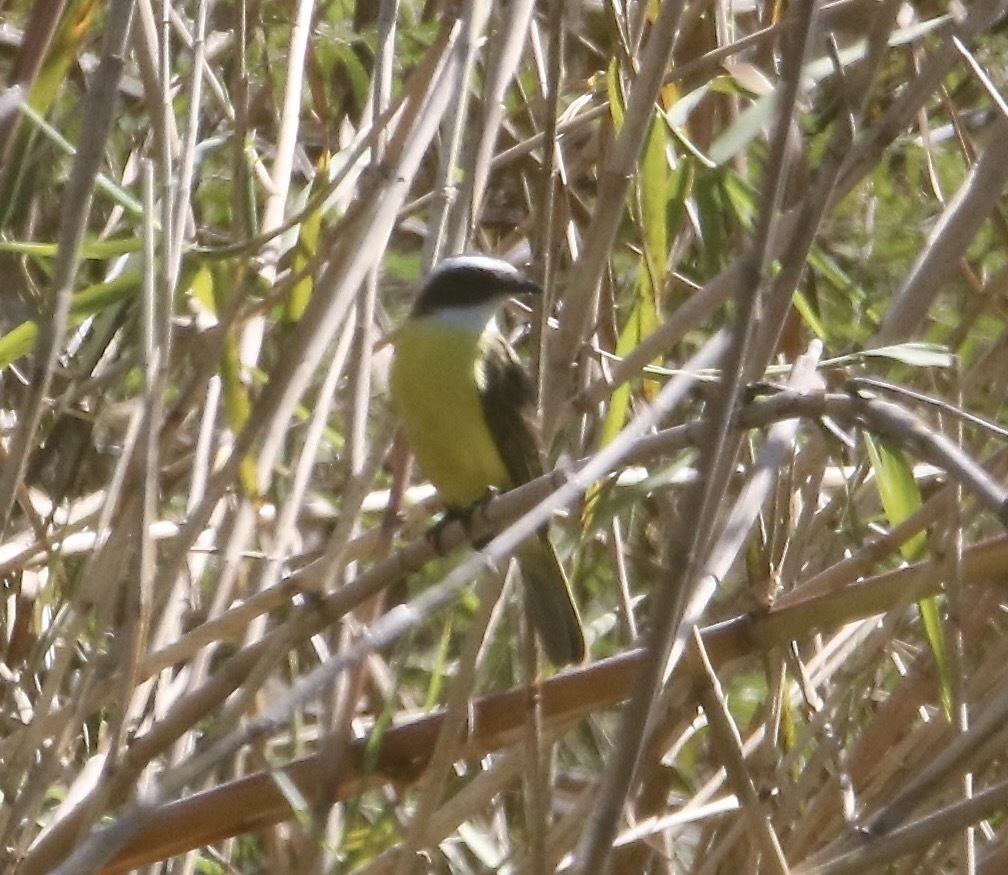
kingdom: Animalia
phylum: Chordata
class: Aves
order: Passeriformes
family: Tyrannidae
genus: Myiozetetes
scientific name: Myiozetetes similis
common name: Social flycatcher
